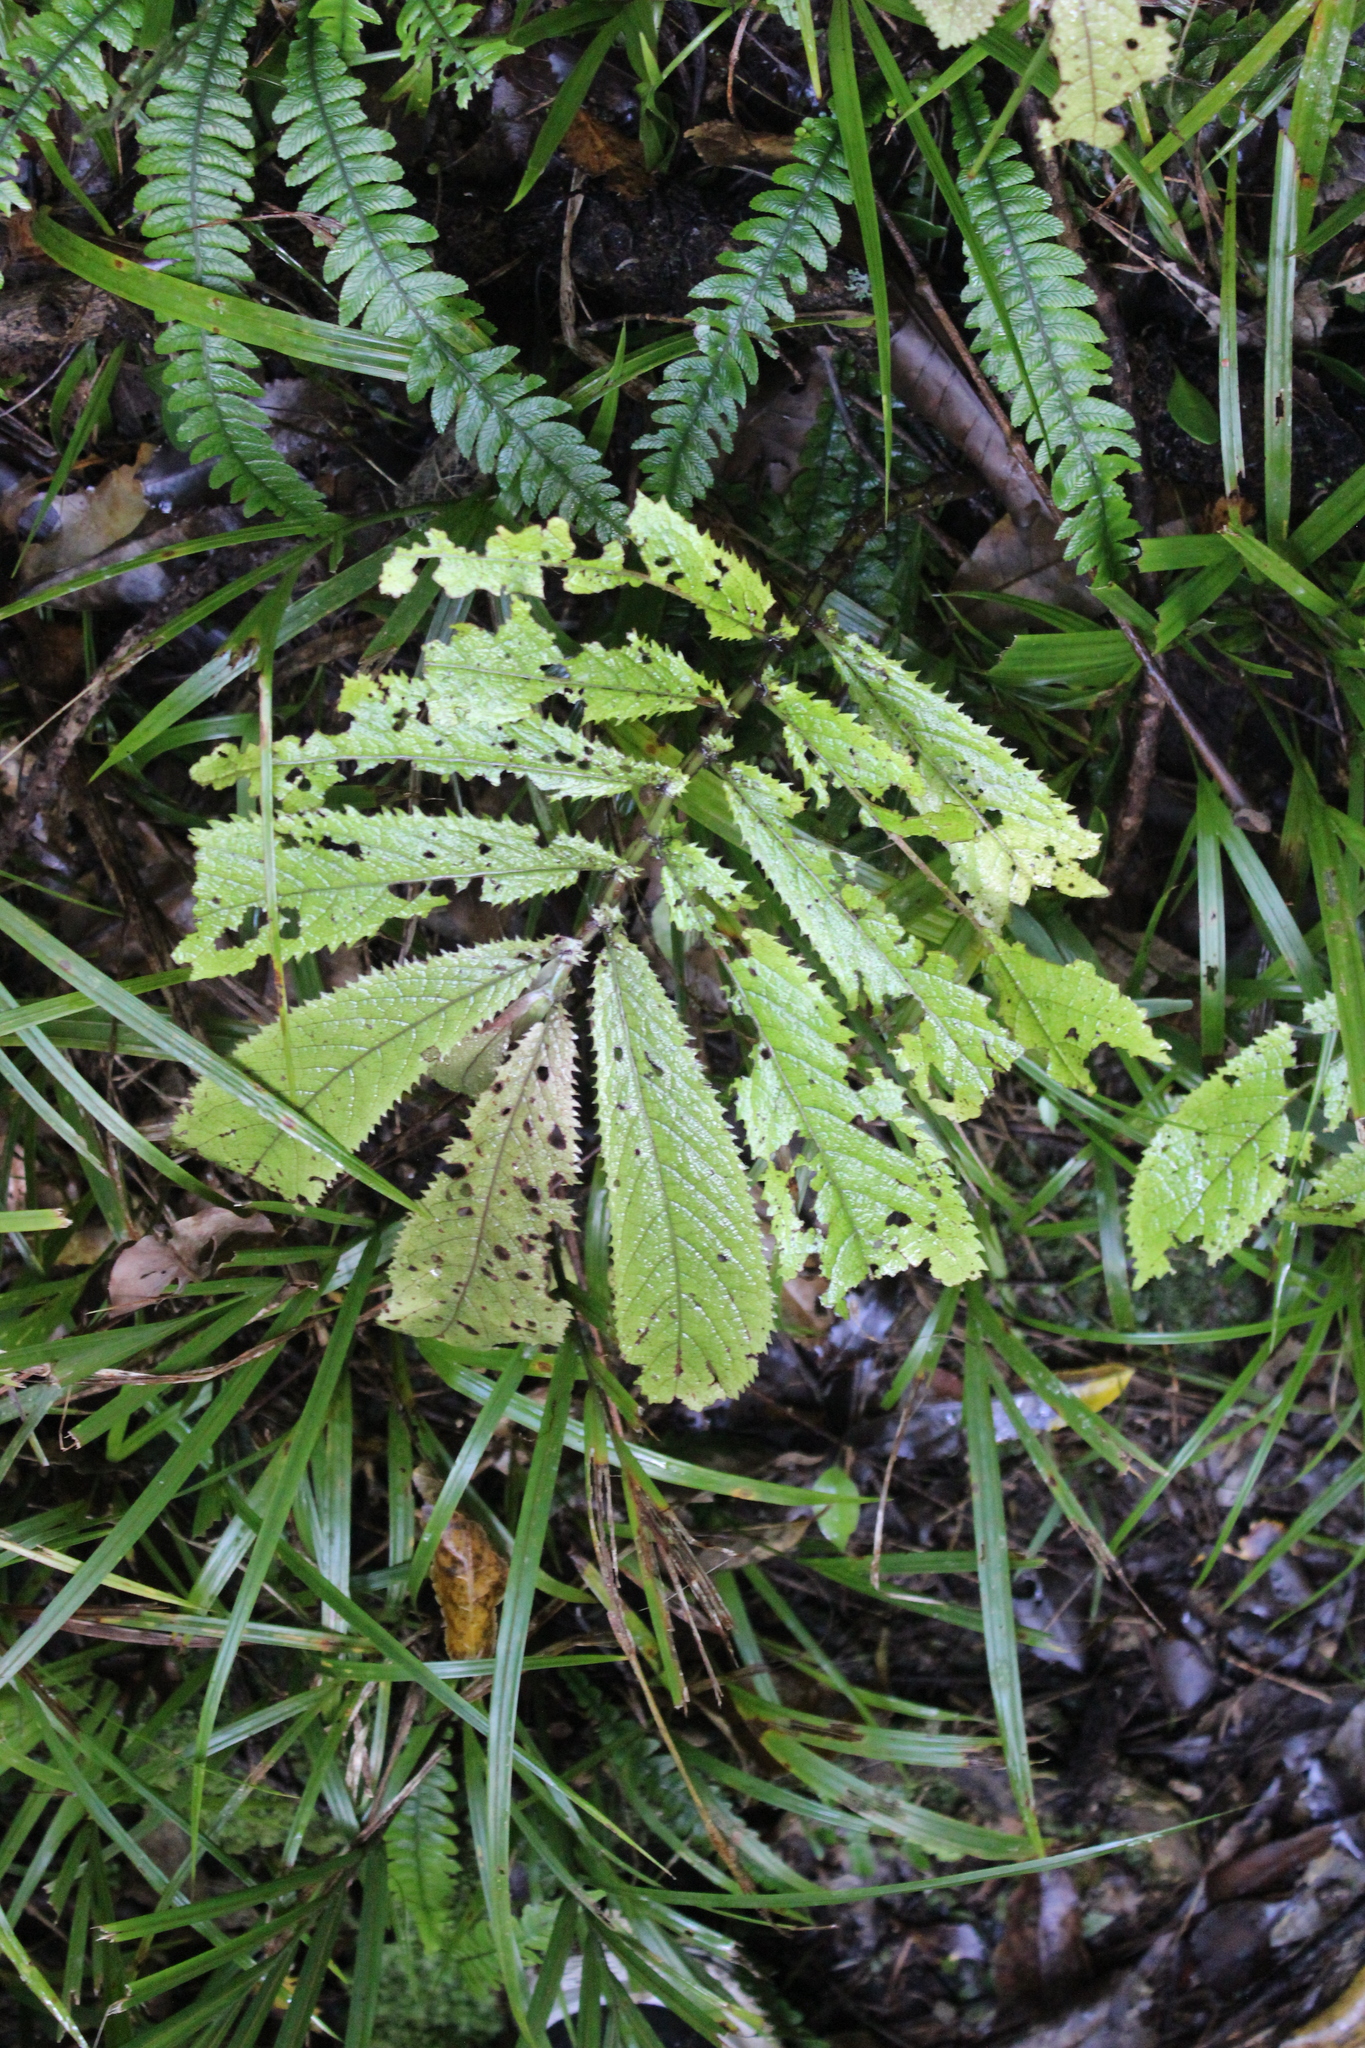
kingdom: Plantae
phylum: Tracheophyta
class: Magnoliopsida
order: Rosales
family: Urticaceae
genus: Elatostema
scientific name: Elatostema rugosum
